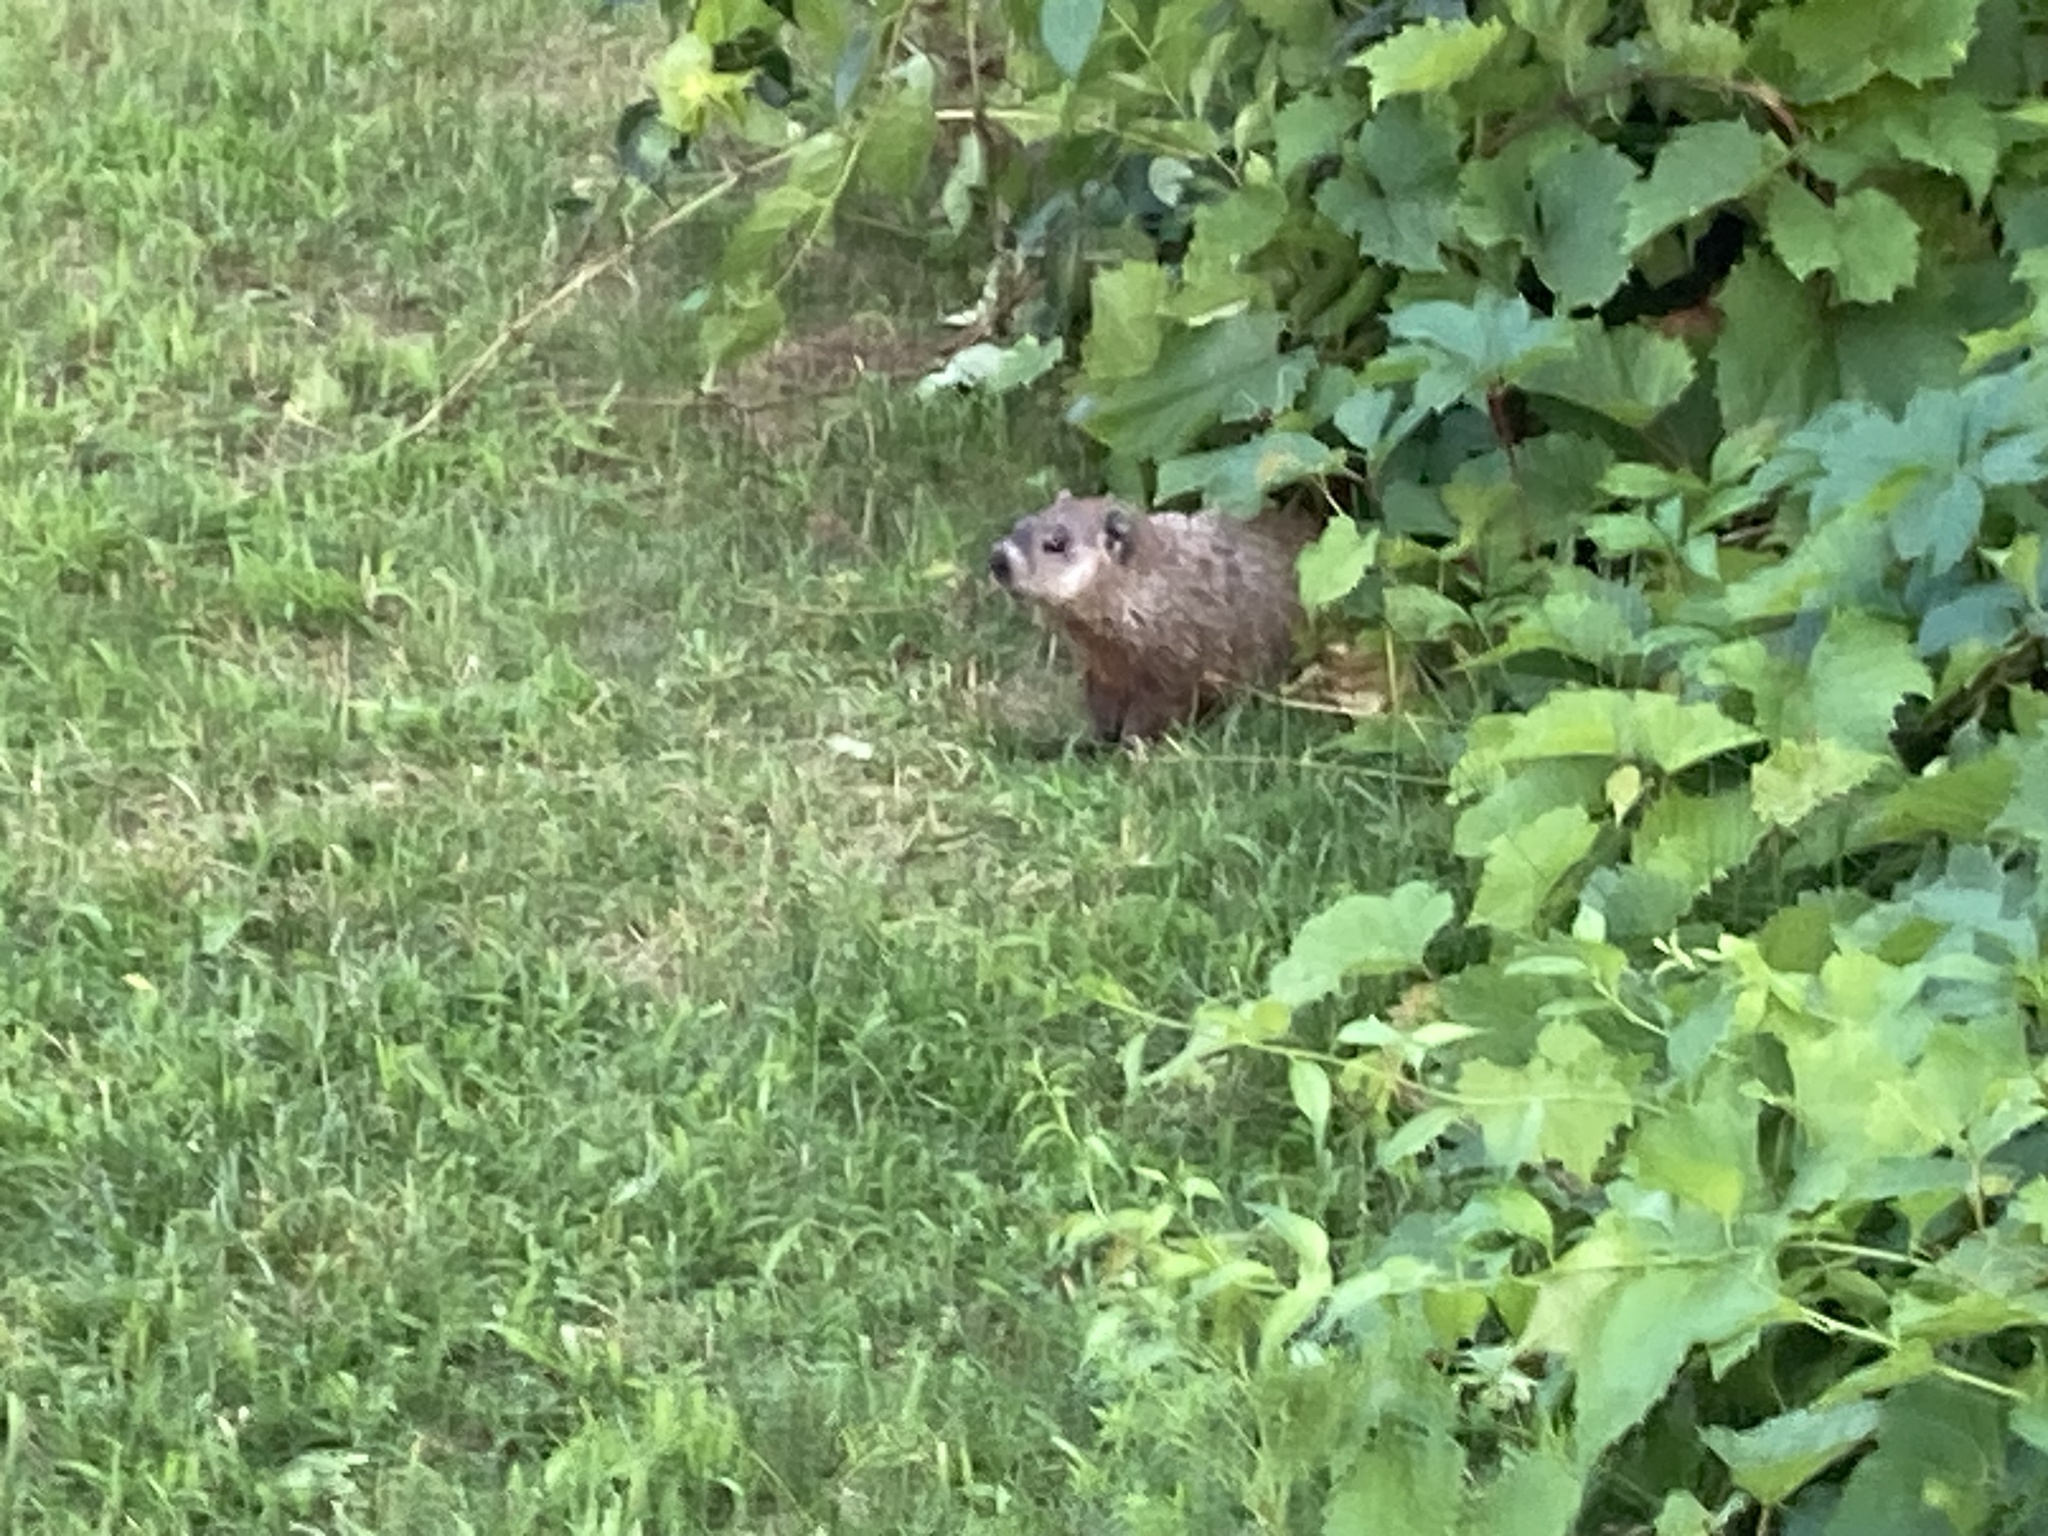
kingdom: Animalia
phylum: Chordata
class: Mammalia
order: Rodentia
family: Sciuridae
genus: Marmota
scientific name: Marmota monax
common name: Groundhog
